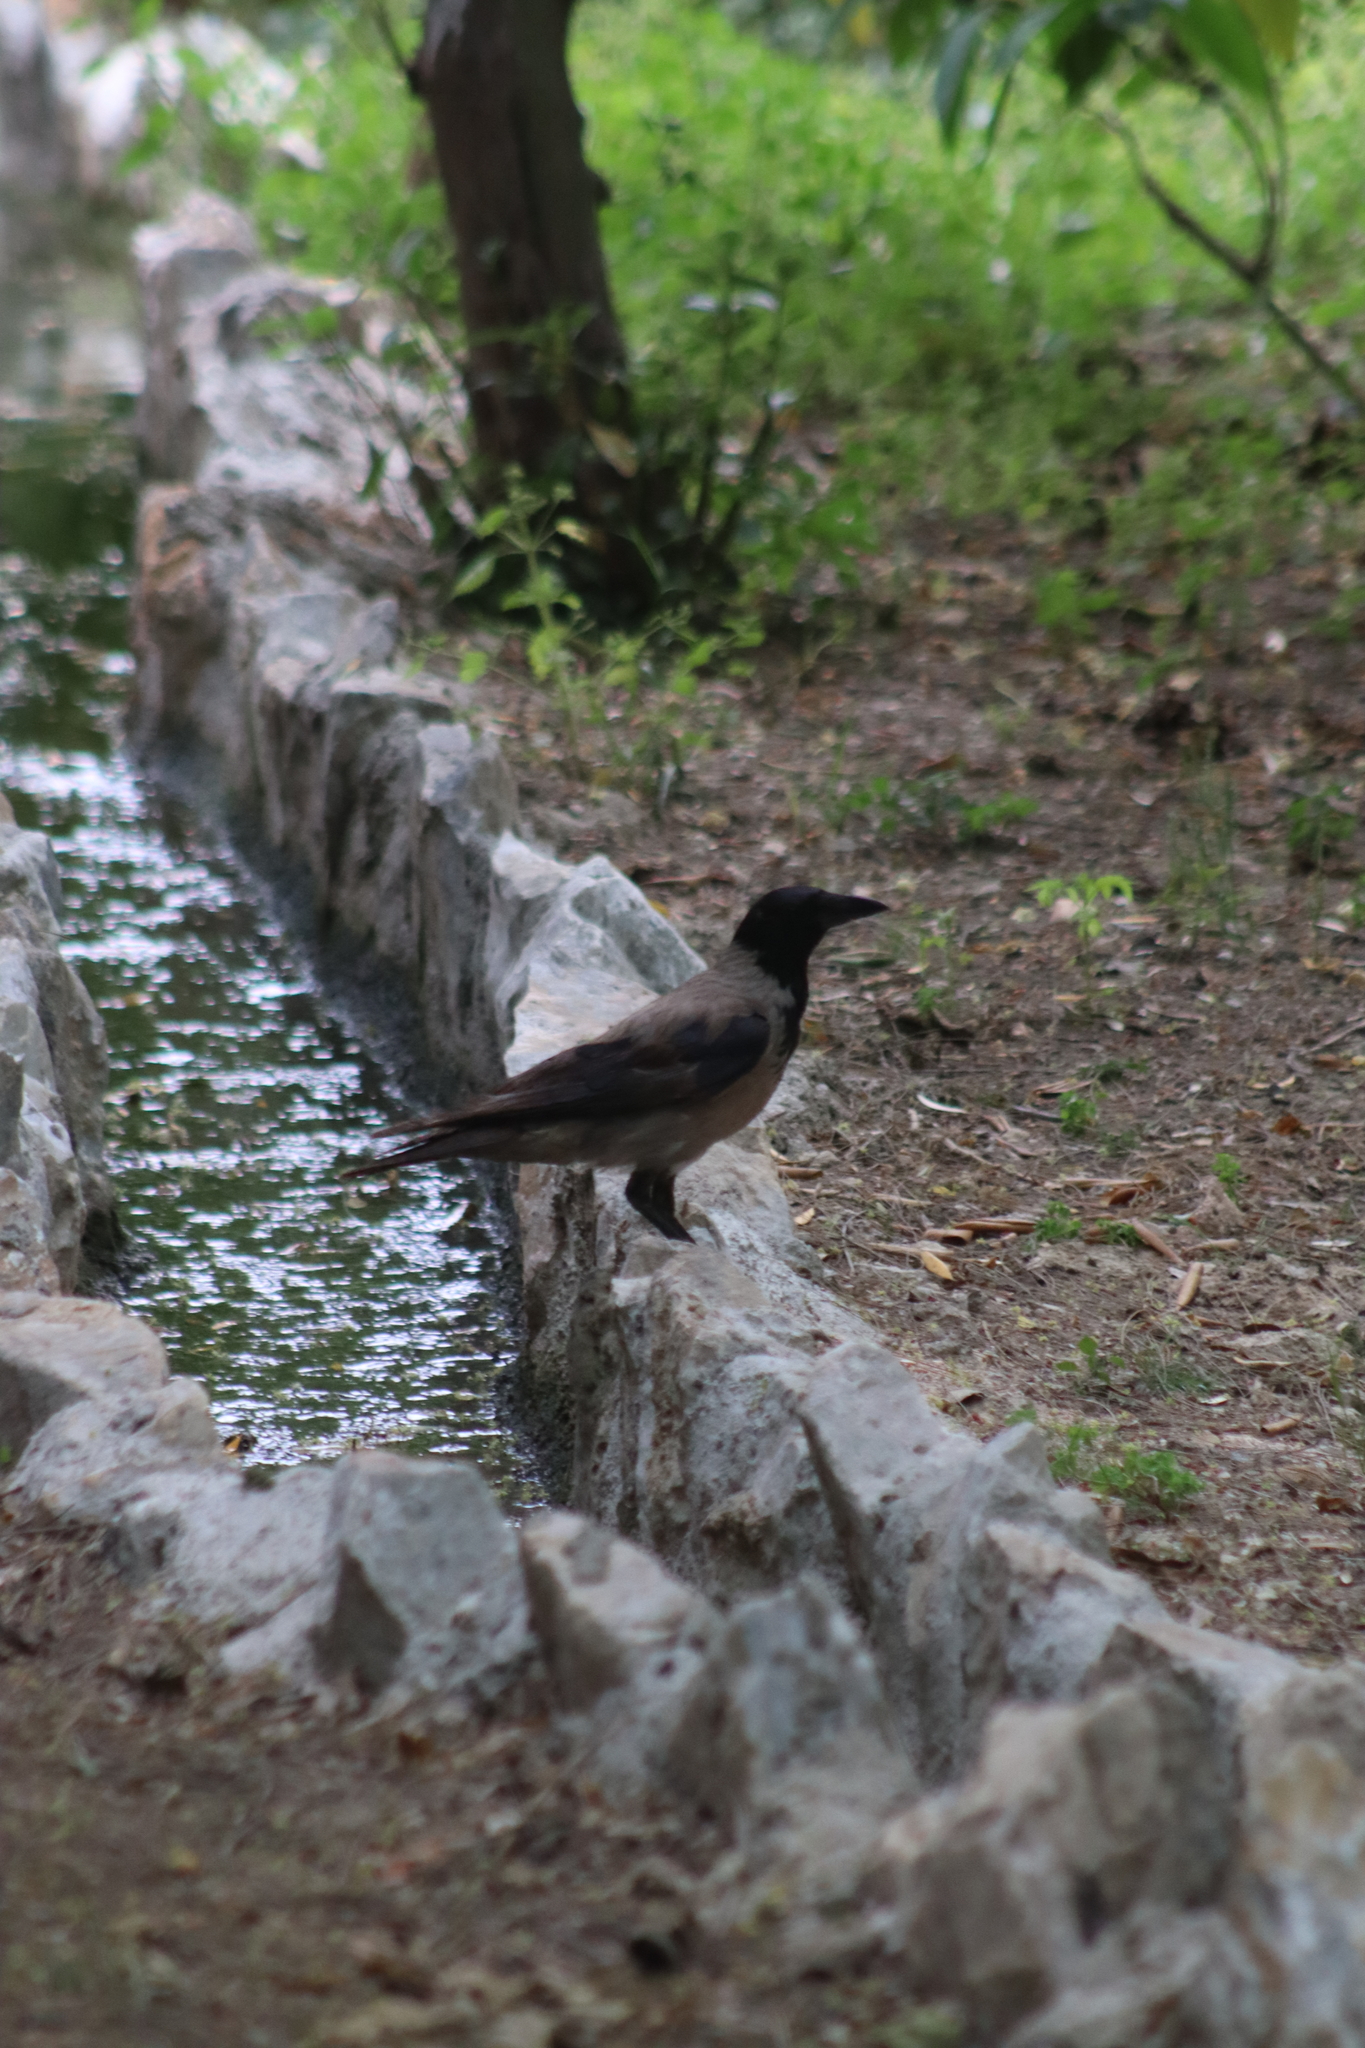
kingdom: Animalia
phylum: Chordata
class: Aves
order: Passeriformes
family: Corvidae
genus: Corvus
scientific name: Corvus cornix
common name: Hooded crow
